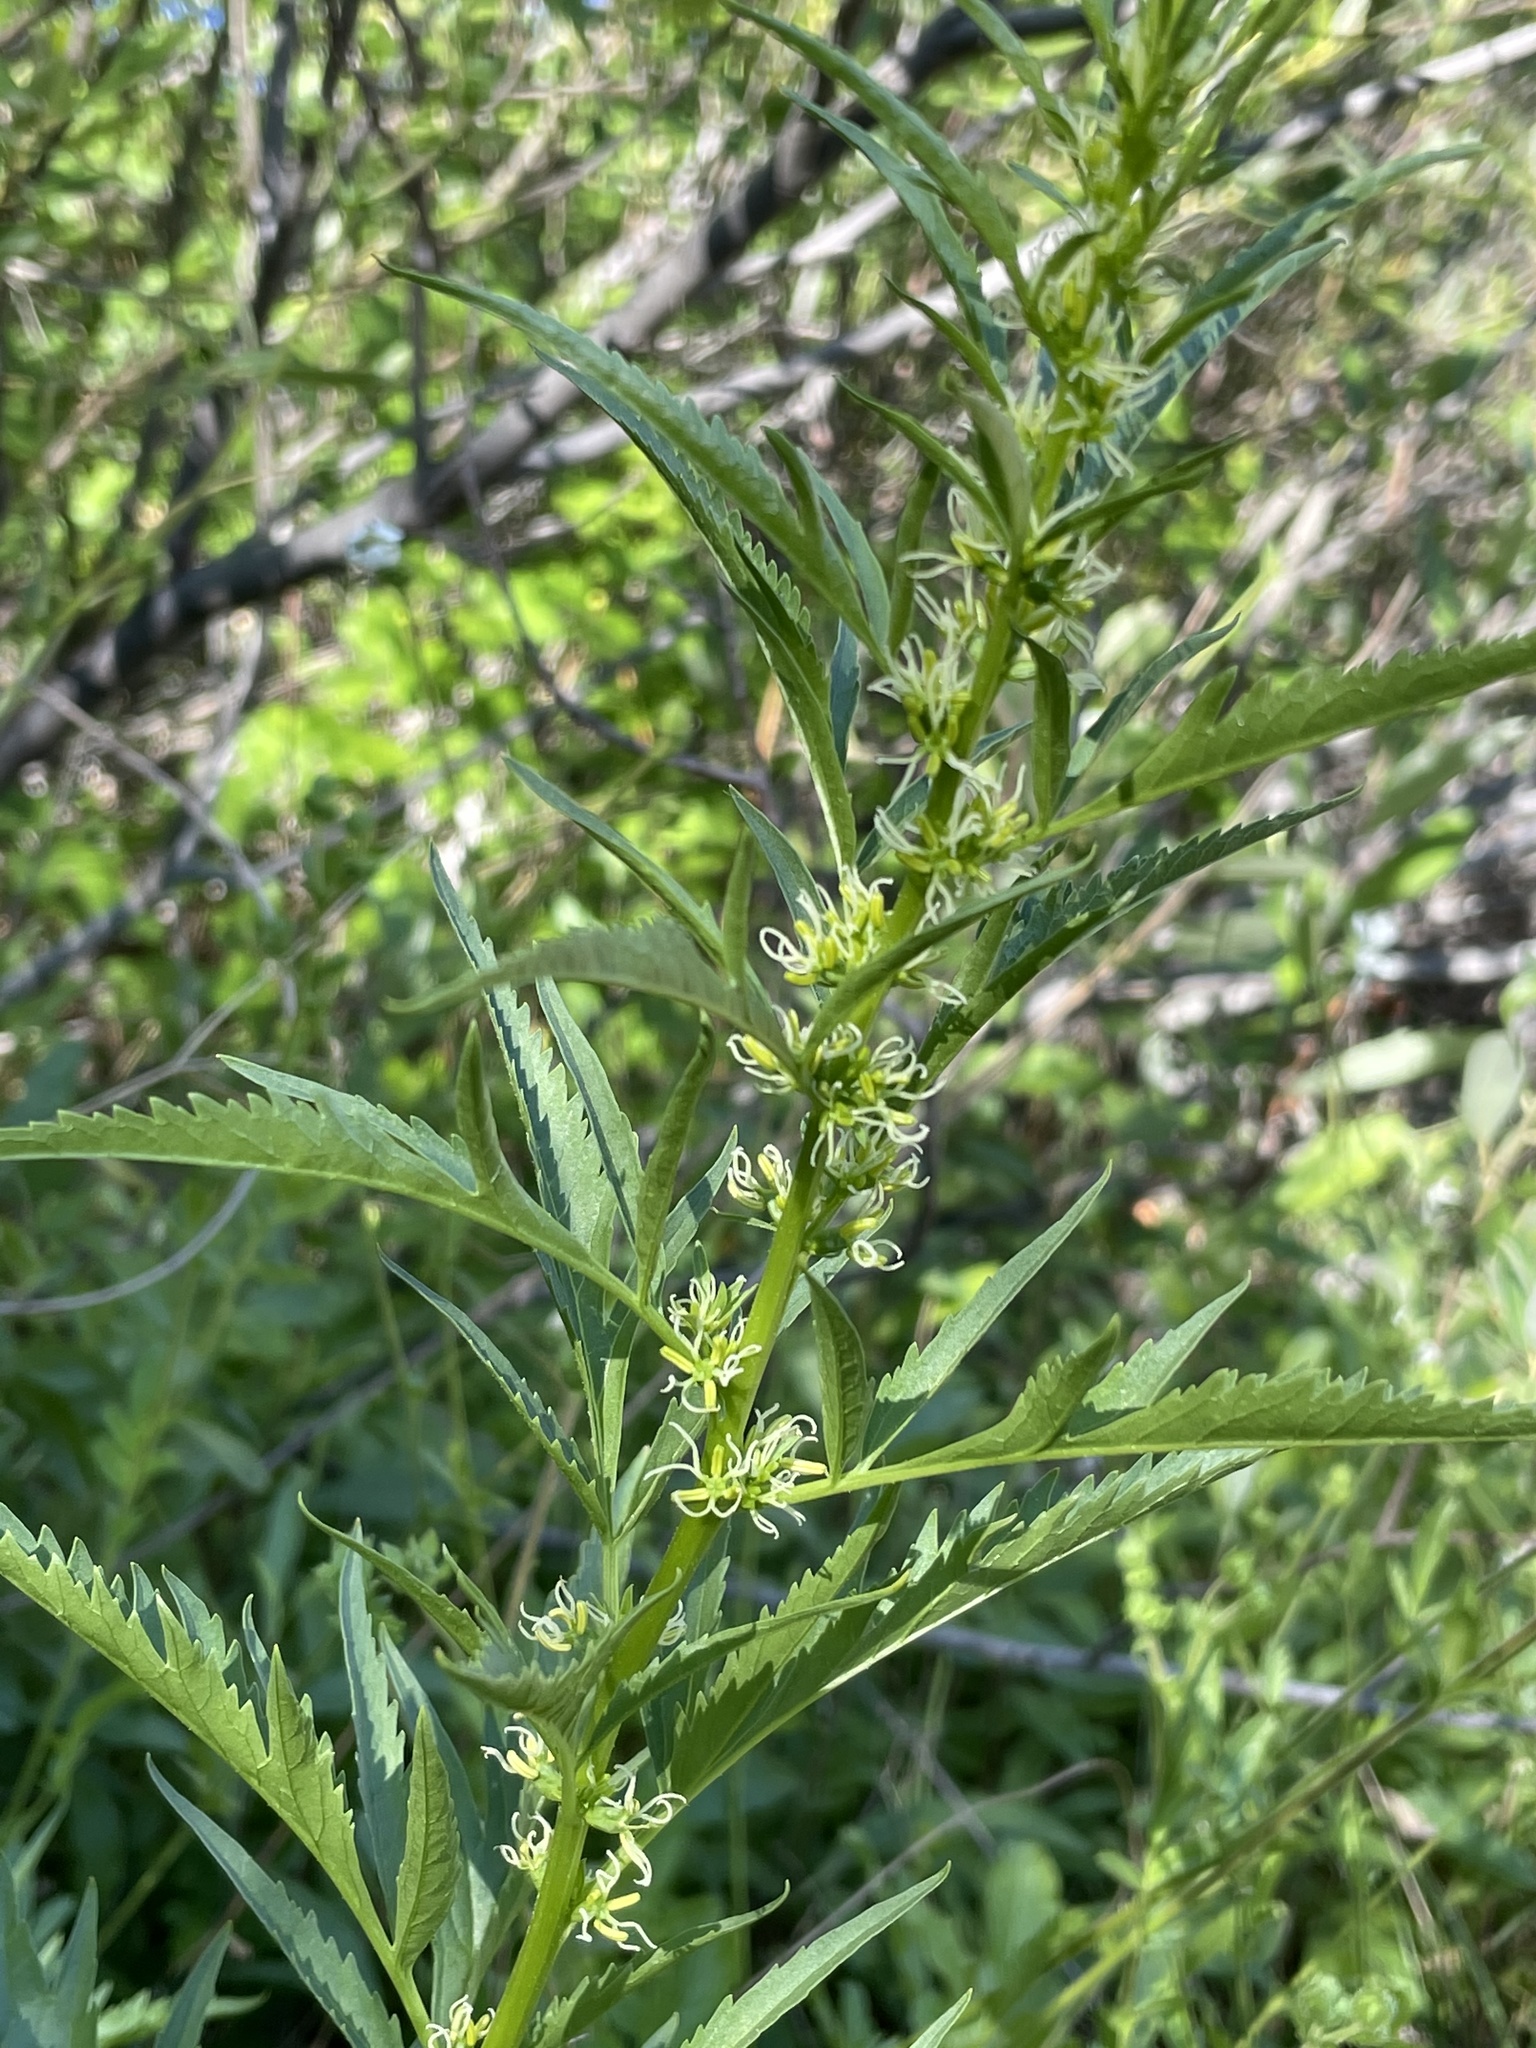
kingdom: Plantae
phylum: Tracheophyta
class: Magnoliopsida
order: Cucurbitales
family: Datiscaceae
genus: Datisca
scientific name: Datisca glomerata
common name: Durango-root
